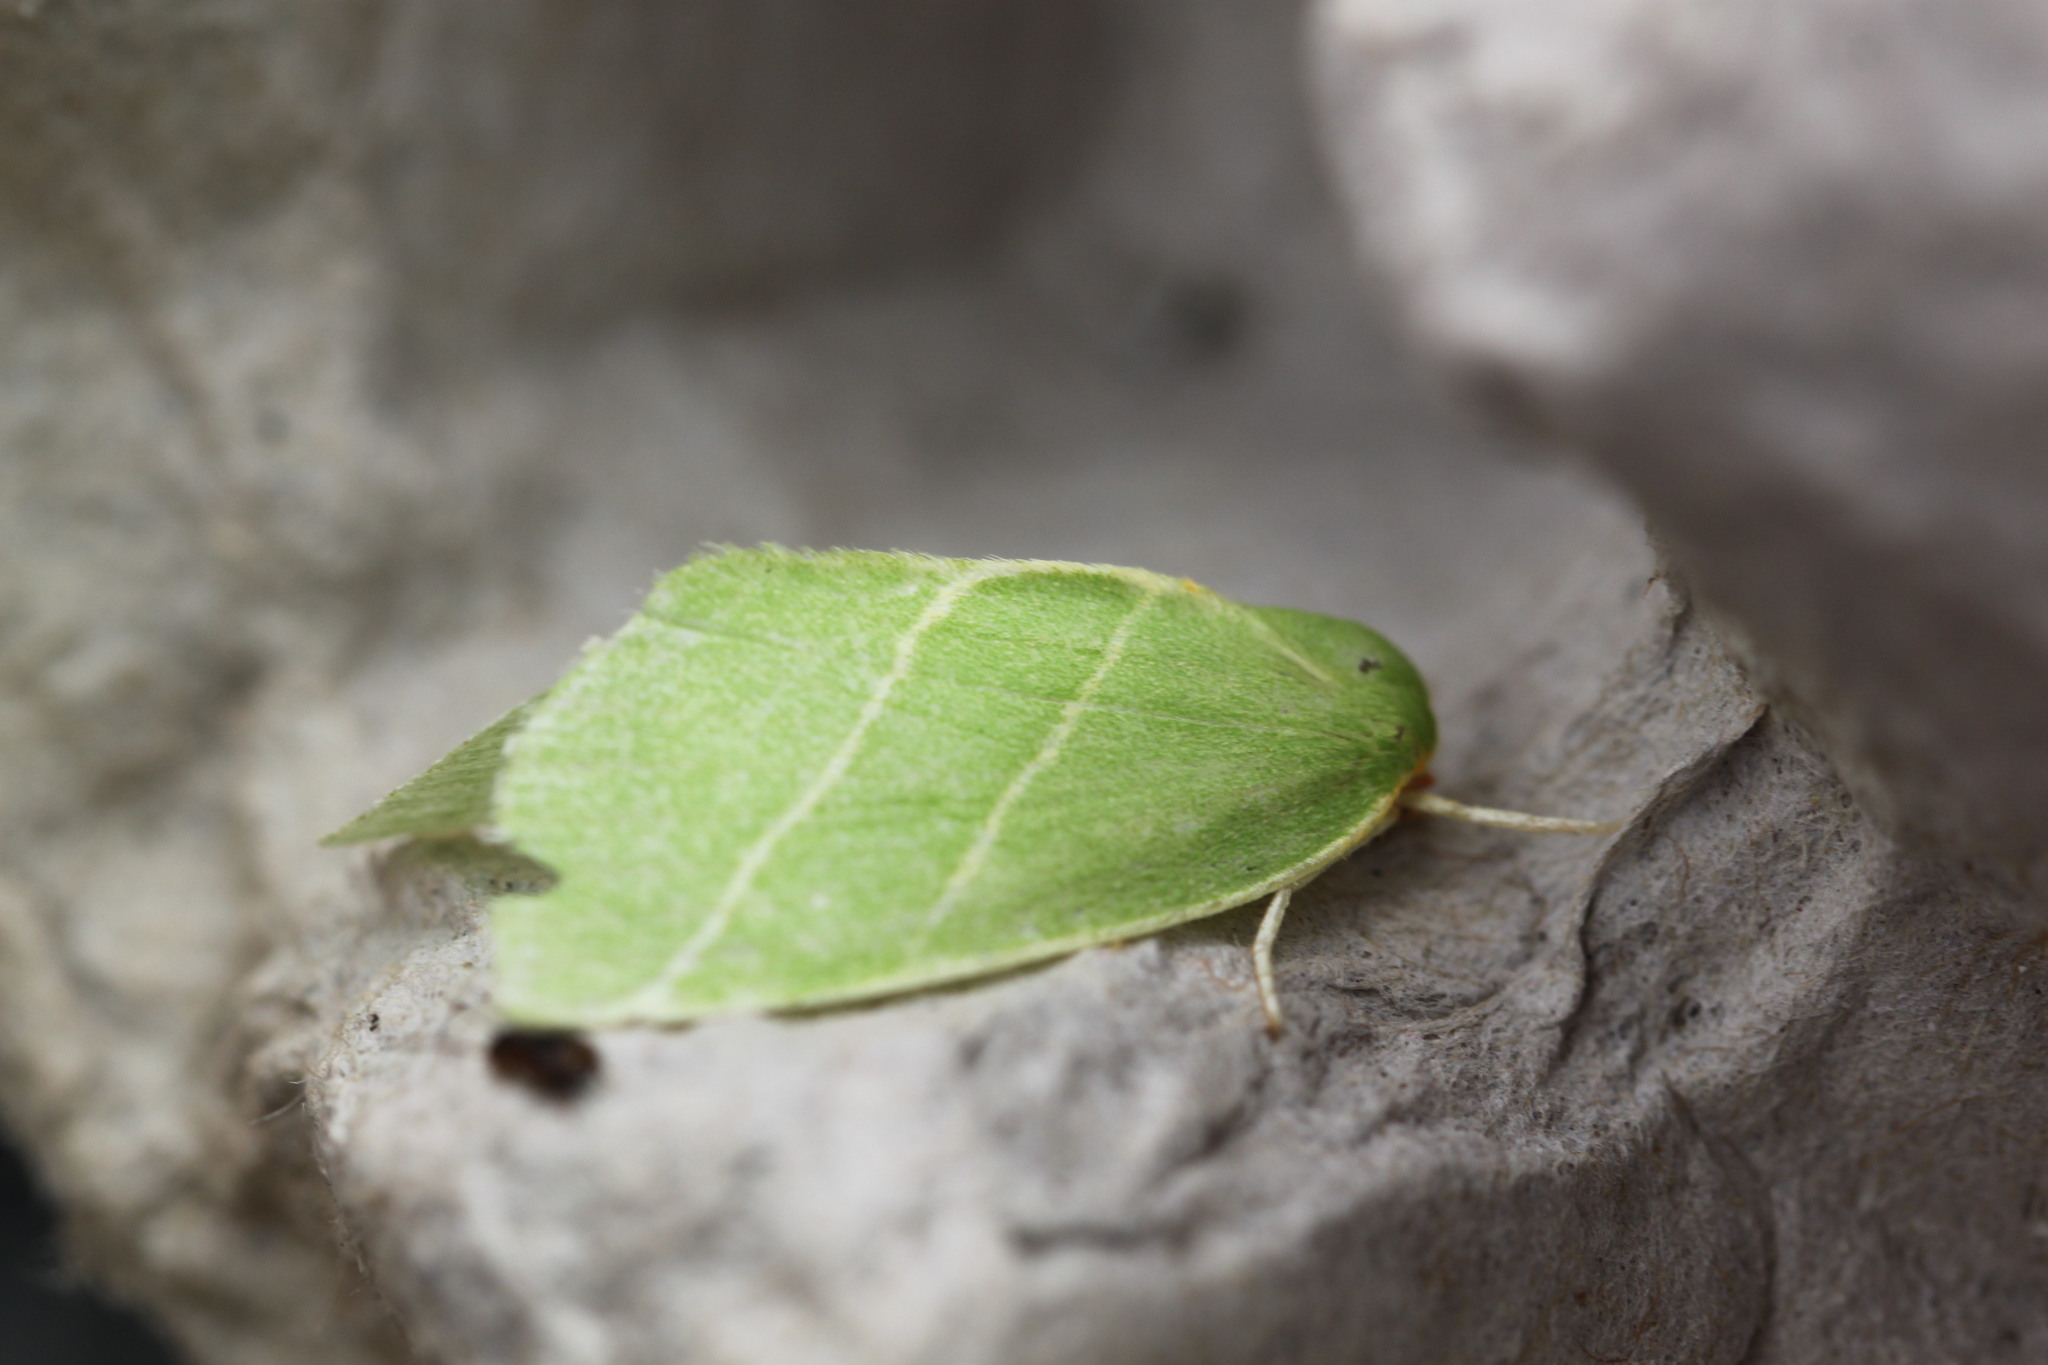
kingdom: Animalia
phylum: Arthropoda
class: Insecta
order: Lepidoptera
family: Nolidae
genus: Bena
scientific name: Bena bicolorana
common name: Scarce silver-lines
